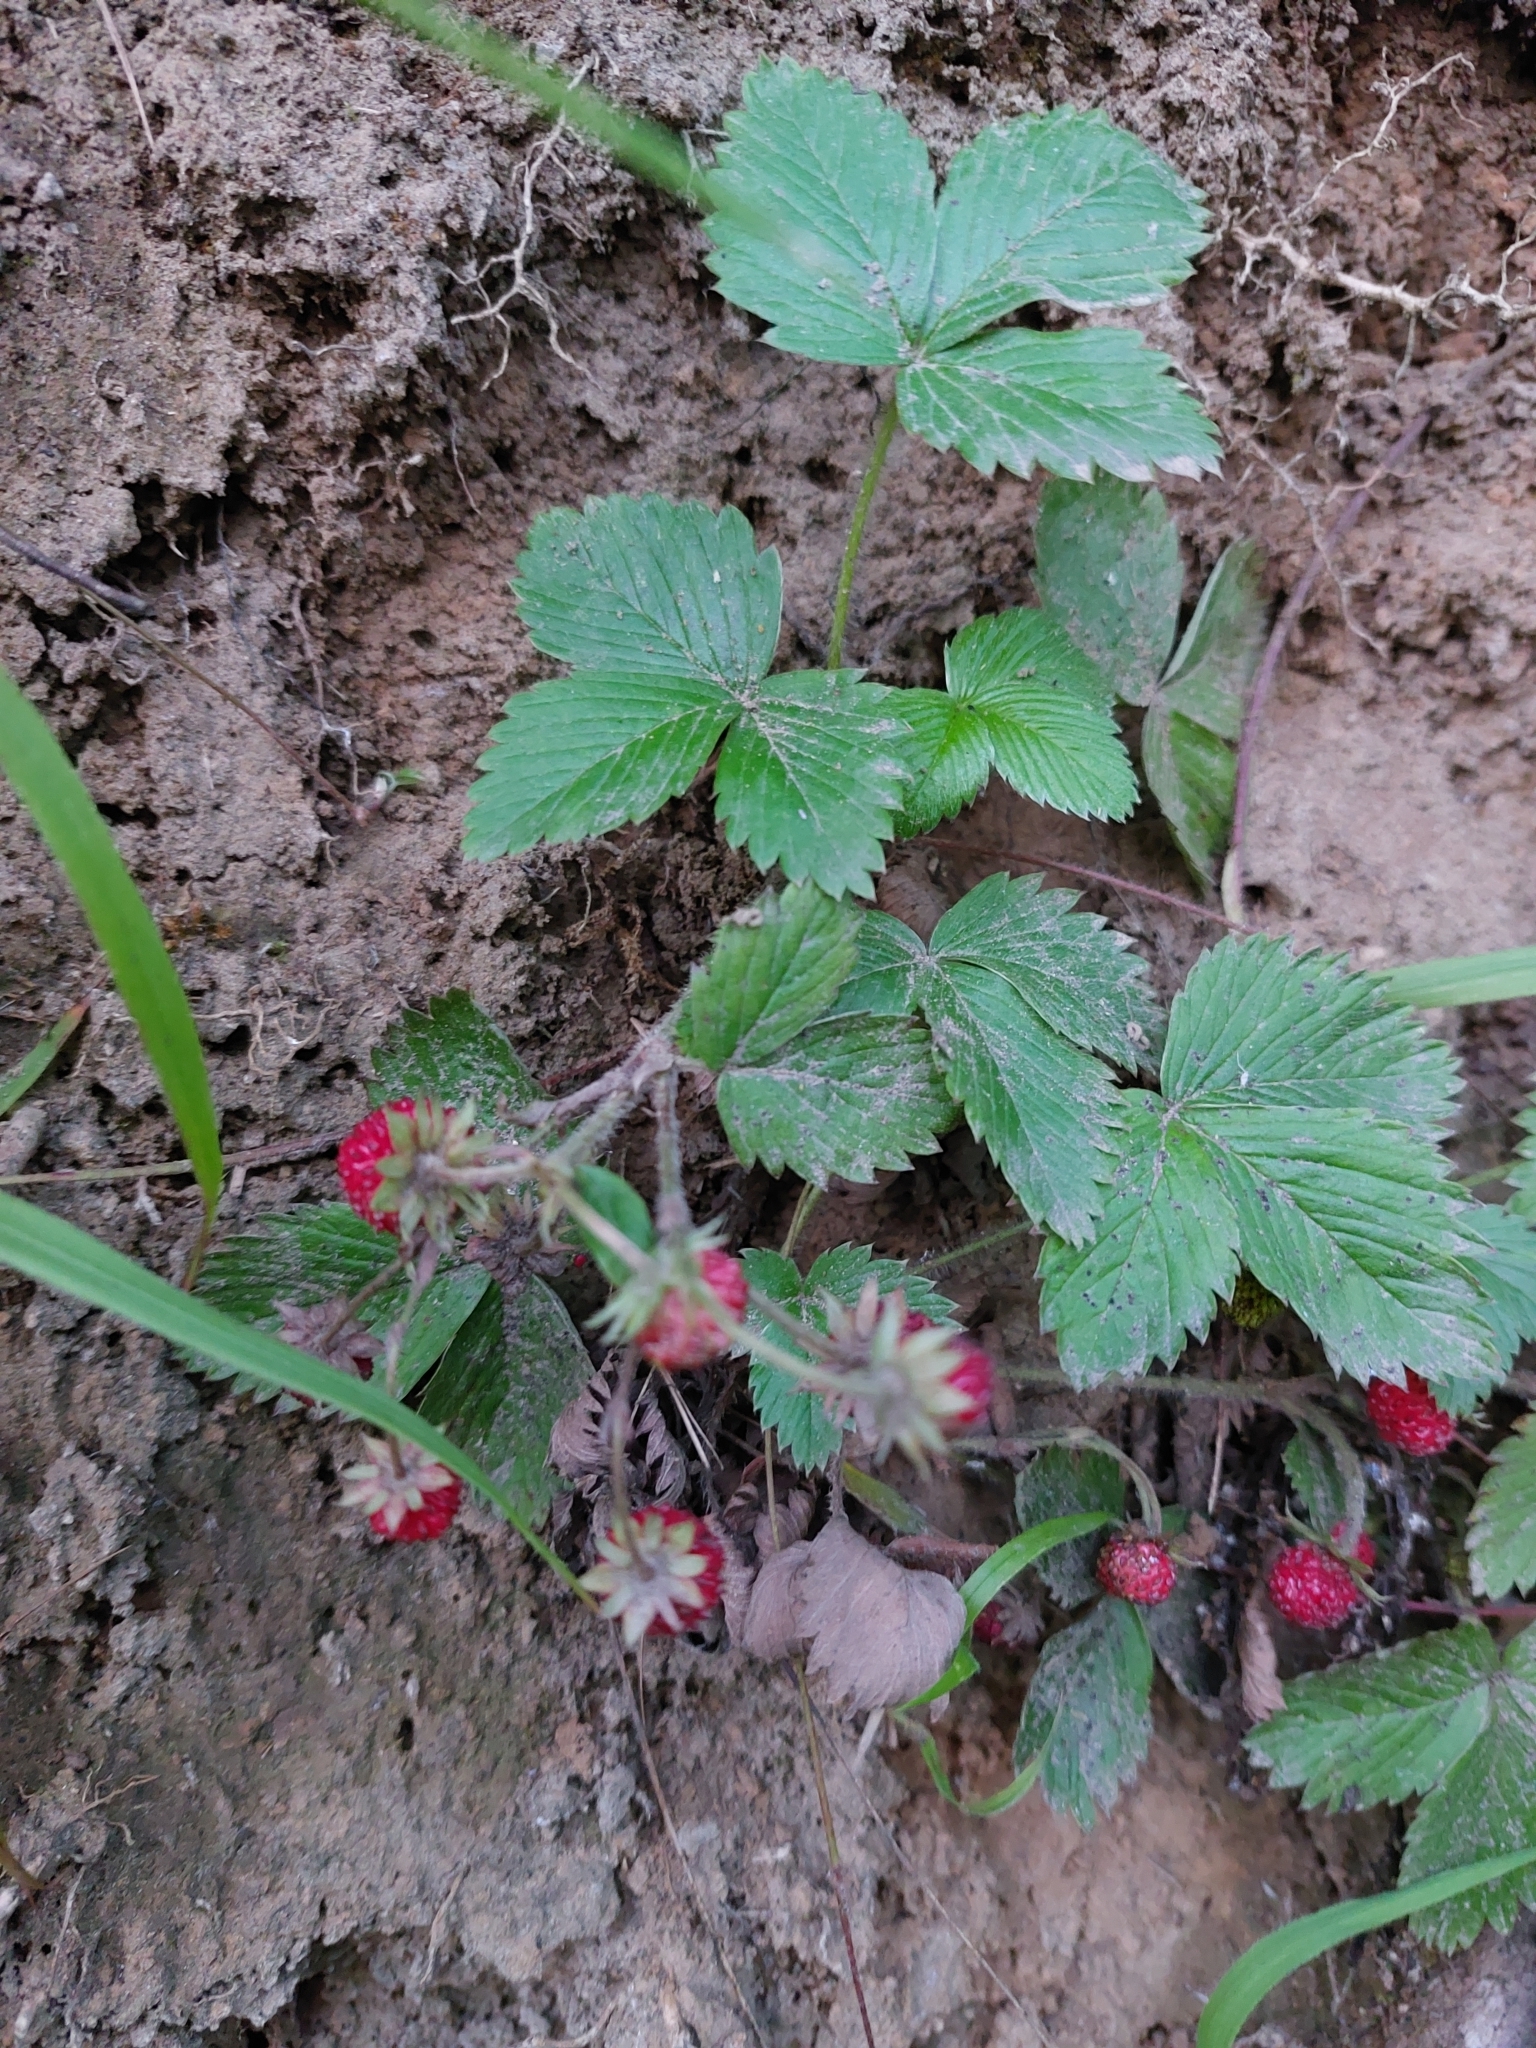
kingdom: Plantae
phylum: Tracheophyta
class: Magnoliopsida
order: Rosales
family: Rosaceae
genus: Fragaria
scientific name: Fragaria vesca
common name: Wild strawberry
